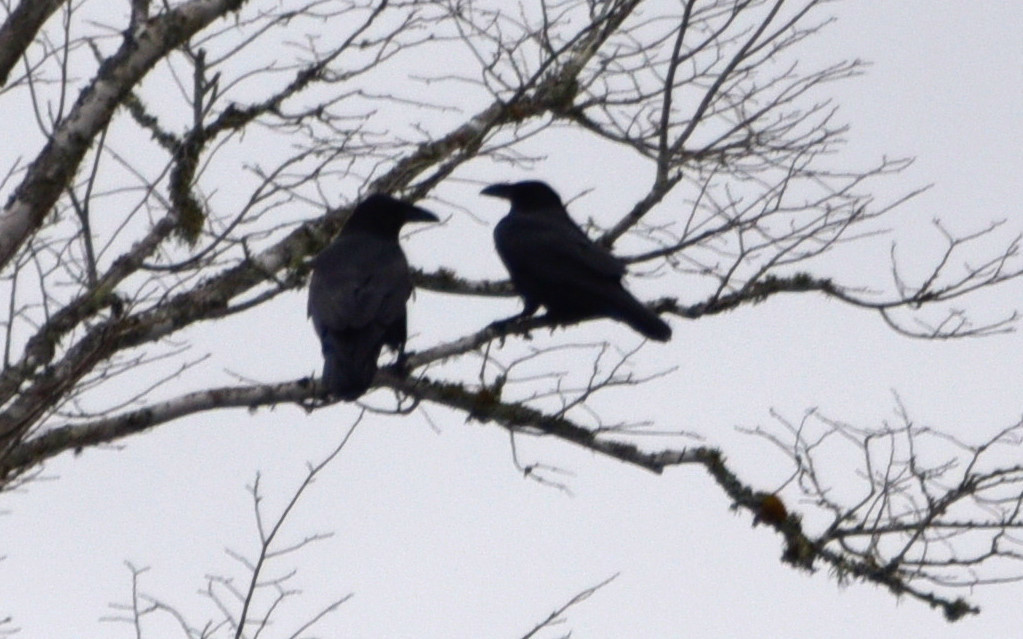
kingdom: Animalia
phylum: Chordata
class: Aves
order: Passeriformes
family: Corvidae
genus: Corvus
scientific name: Corvus corax
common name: Common raven
